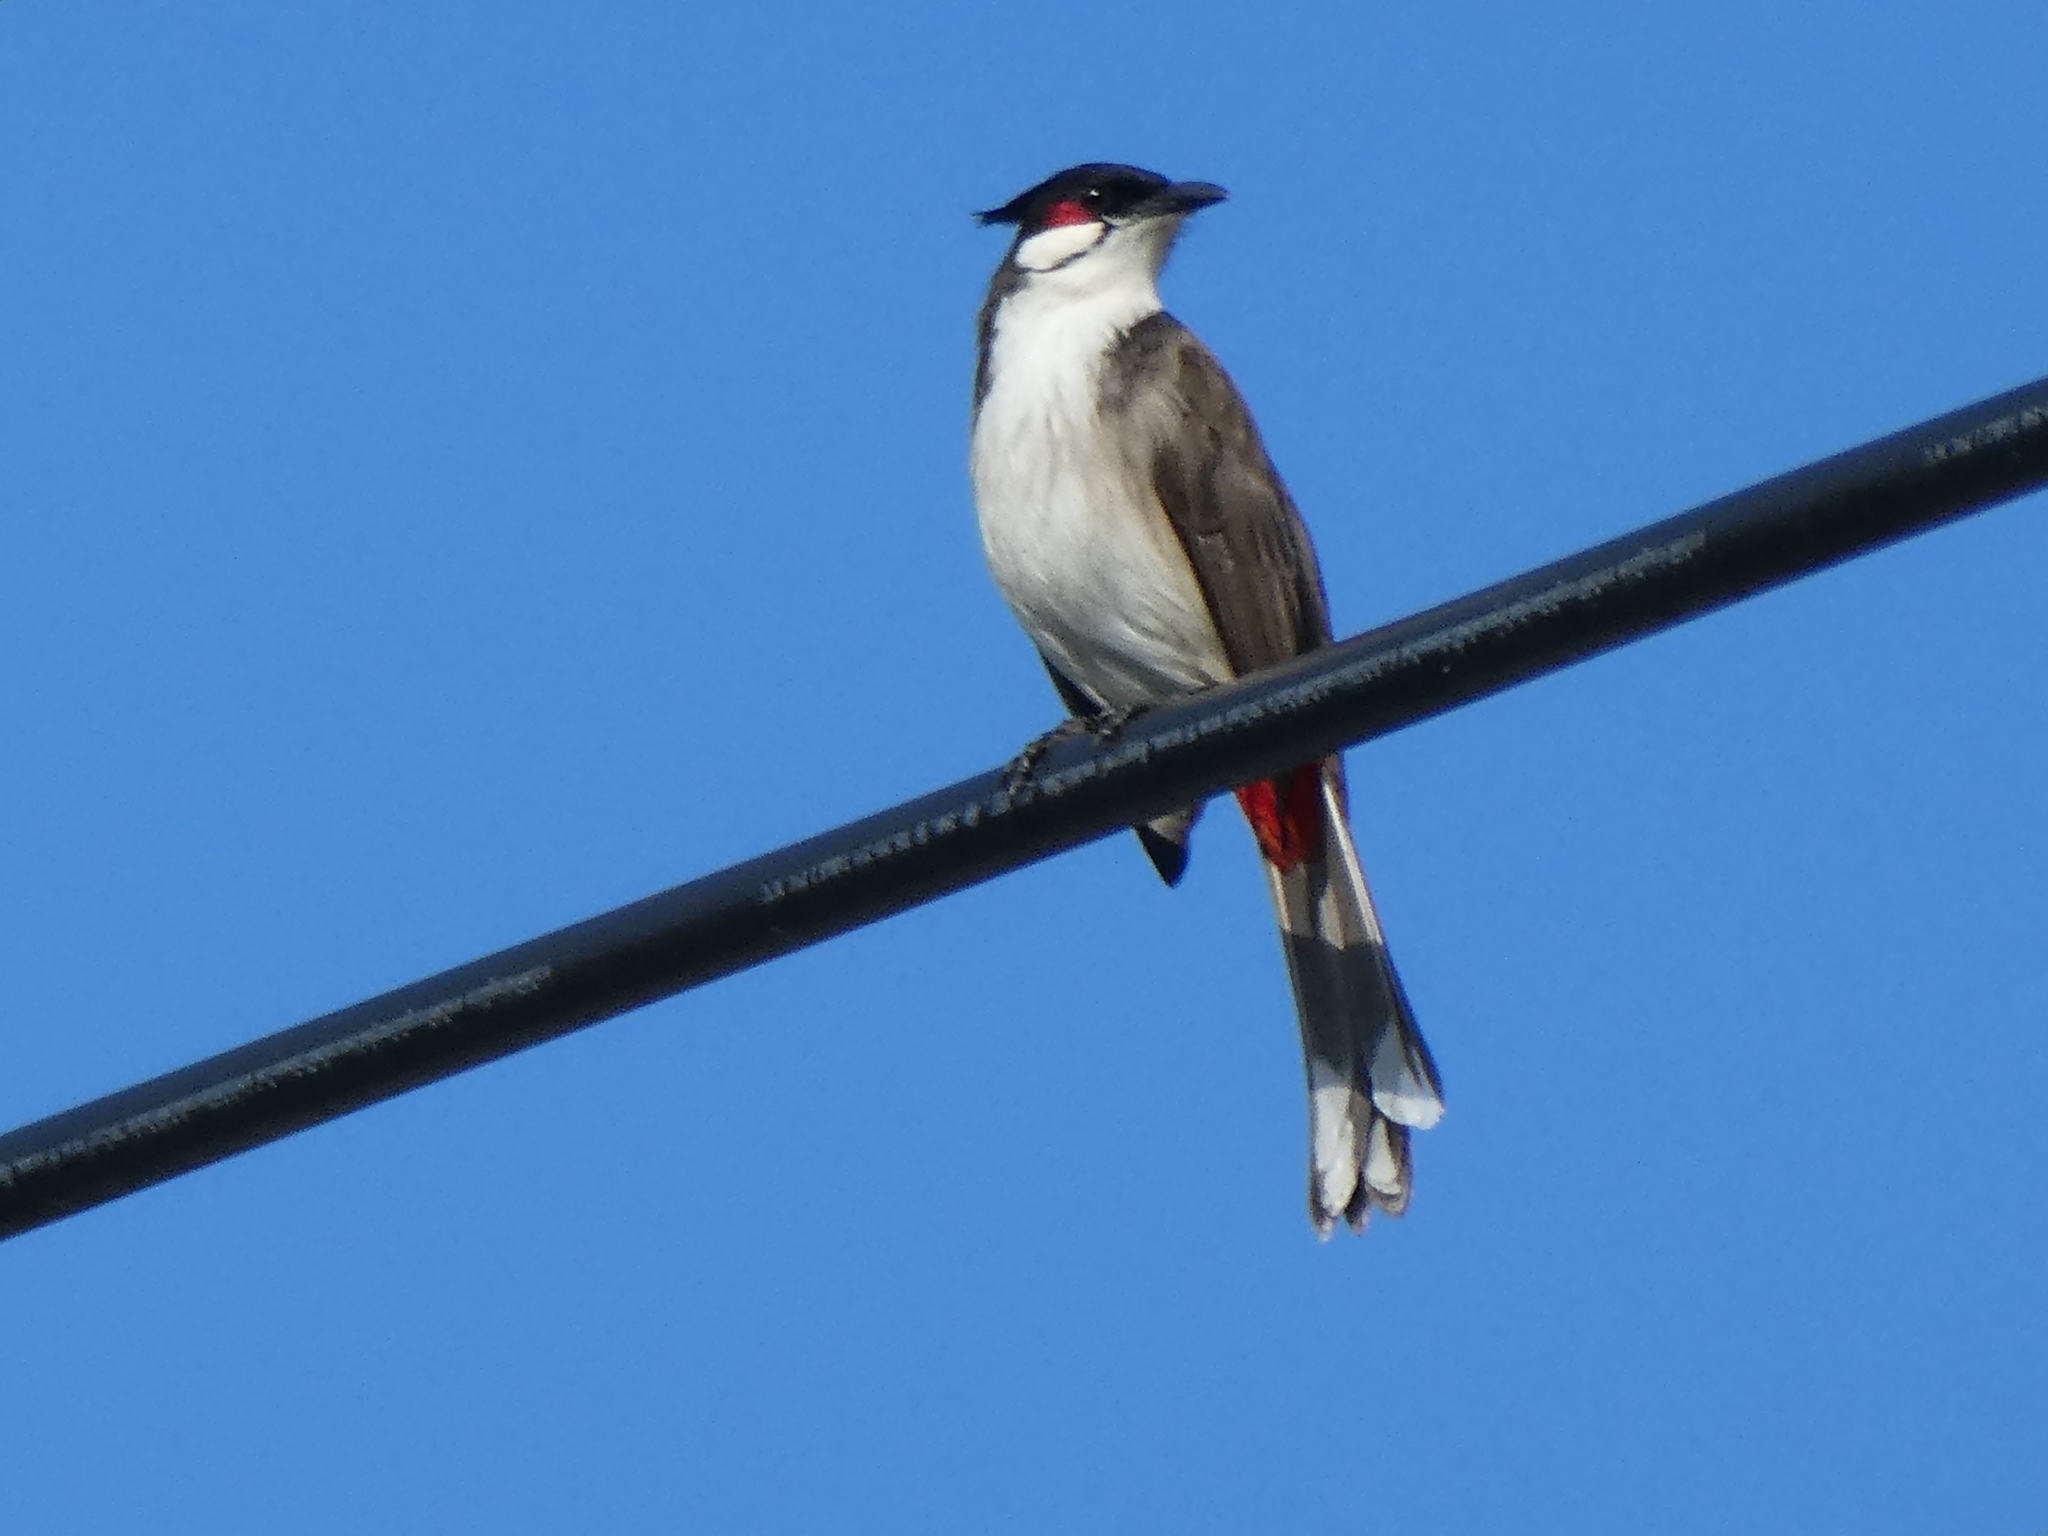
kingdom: Animalia
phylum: Chordata
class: Aves
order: Passeriformes
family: Pycnonotidae
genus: Pycnonotus
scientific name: Pycnonotus jocosus
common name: Red-whiskered bulbul
